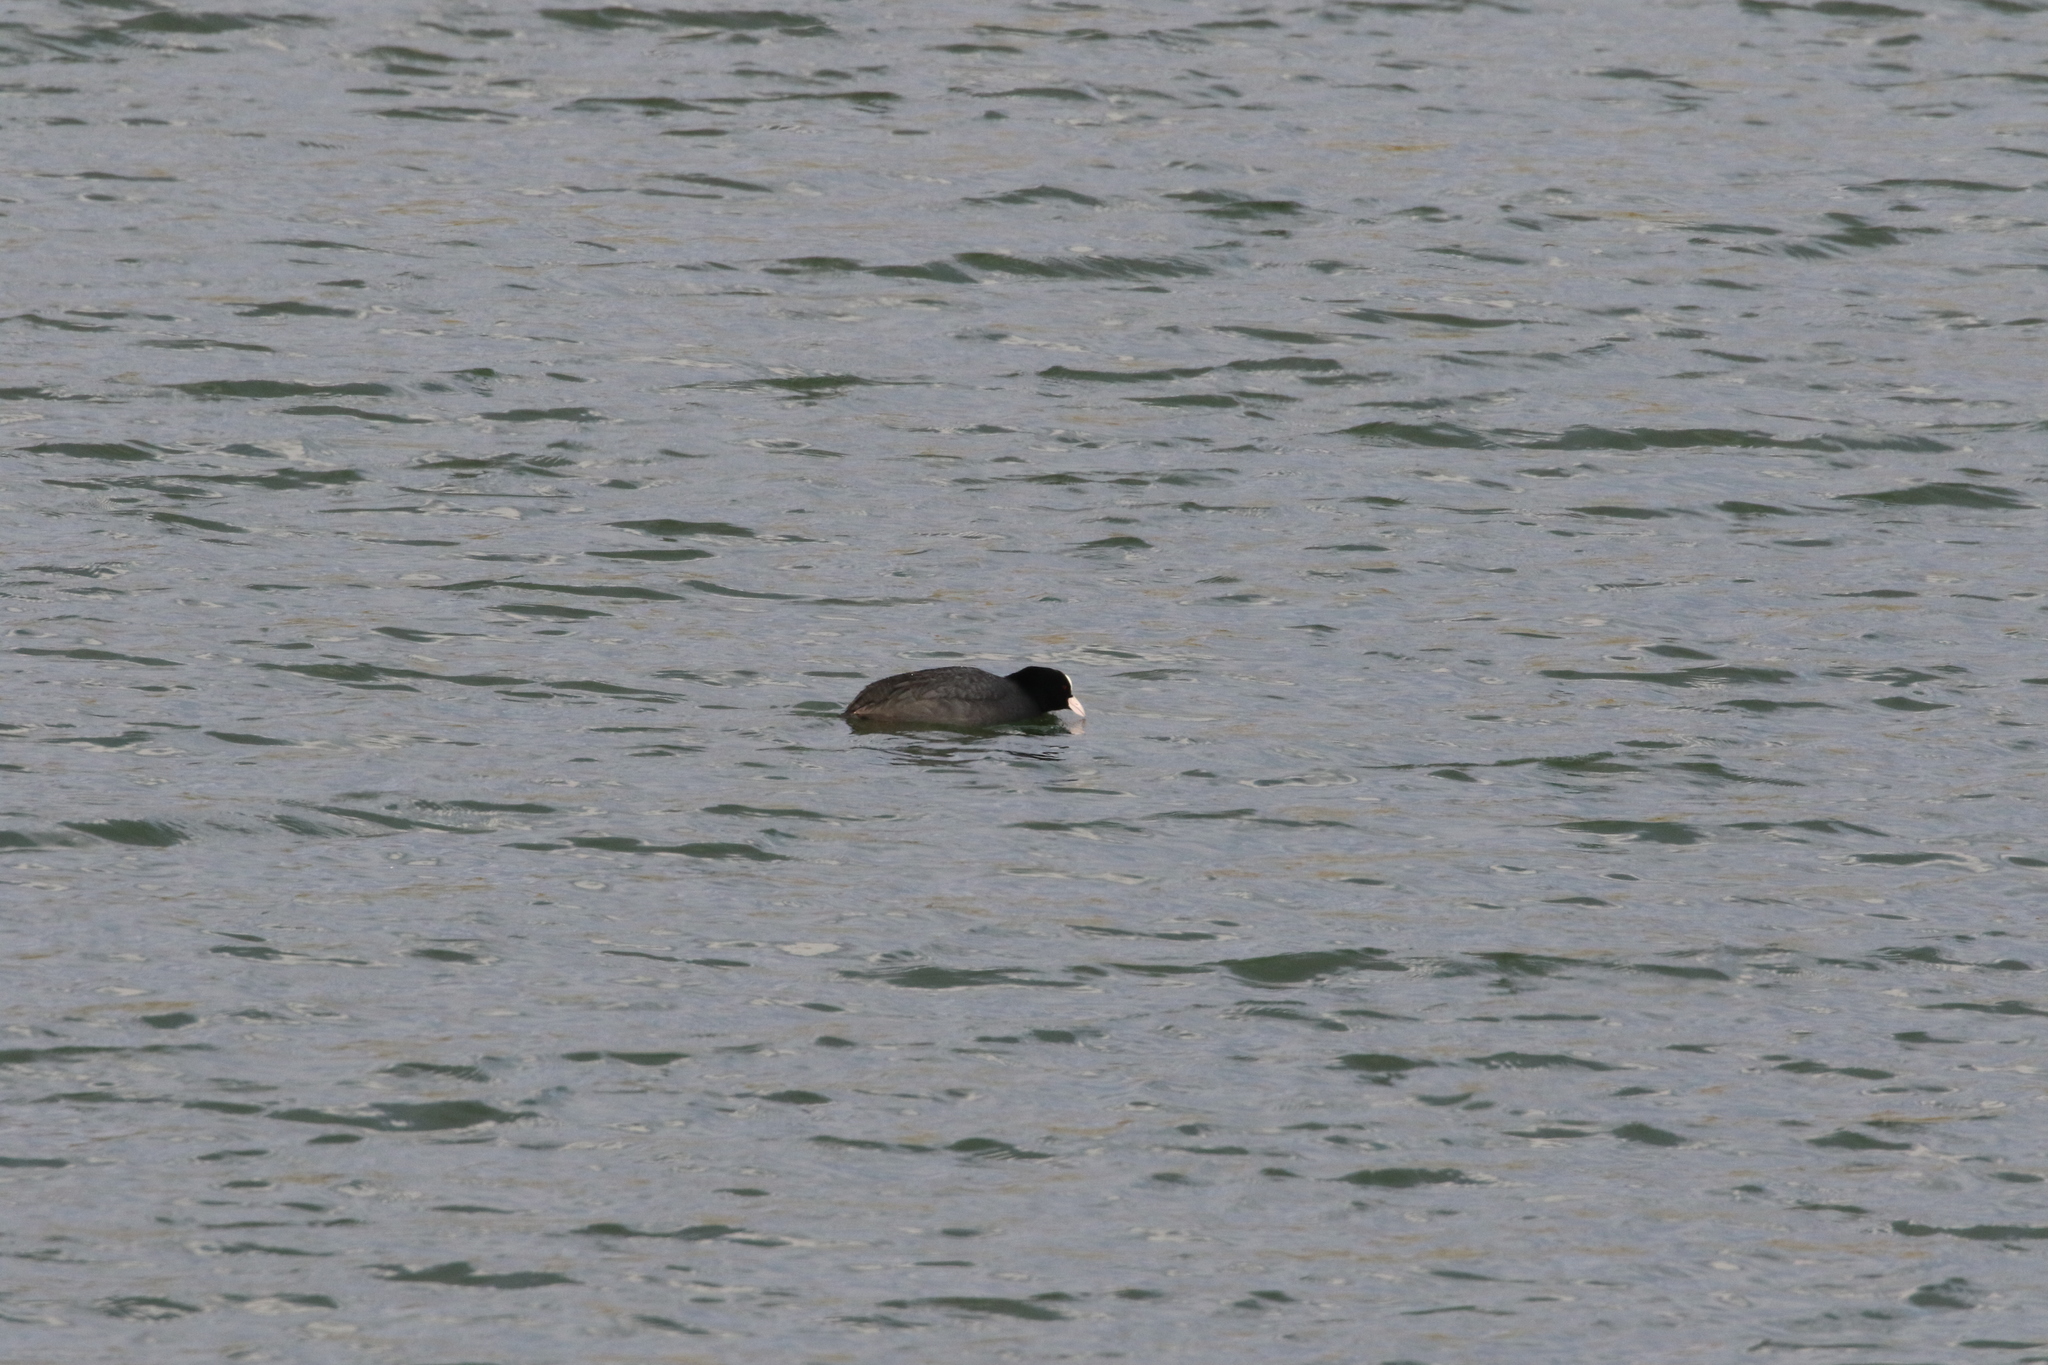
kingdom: Animalia
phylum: Chordata
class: Aves
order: Gruiformes
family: Rallidae
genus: Fulica
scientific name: Fulica atra
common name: Eurasian coot
